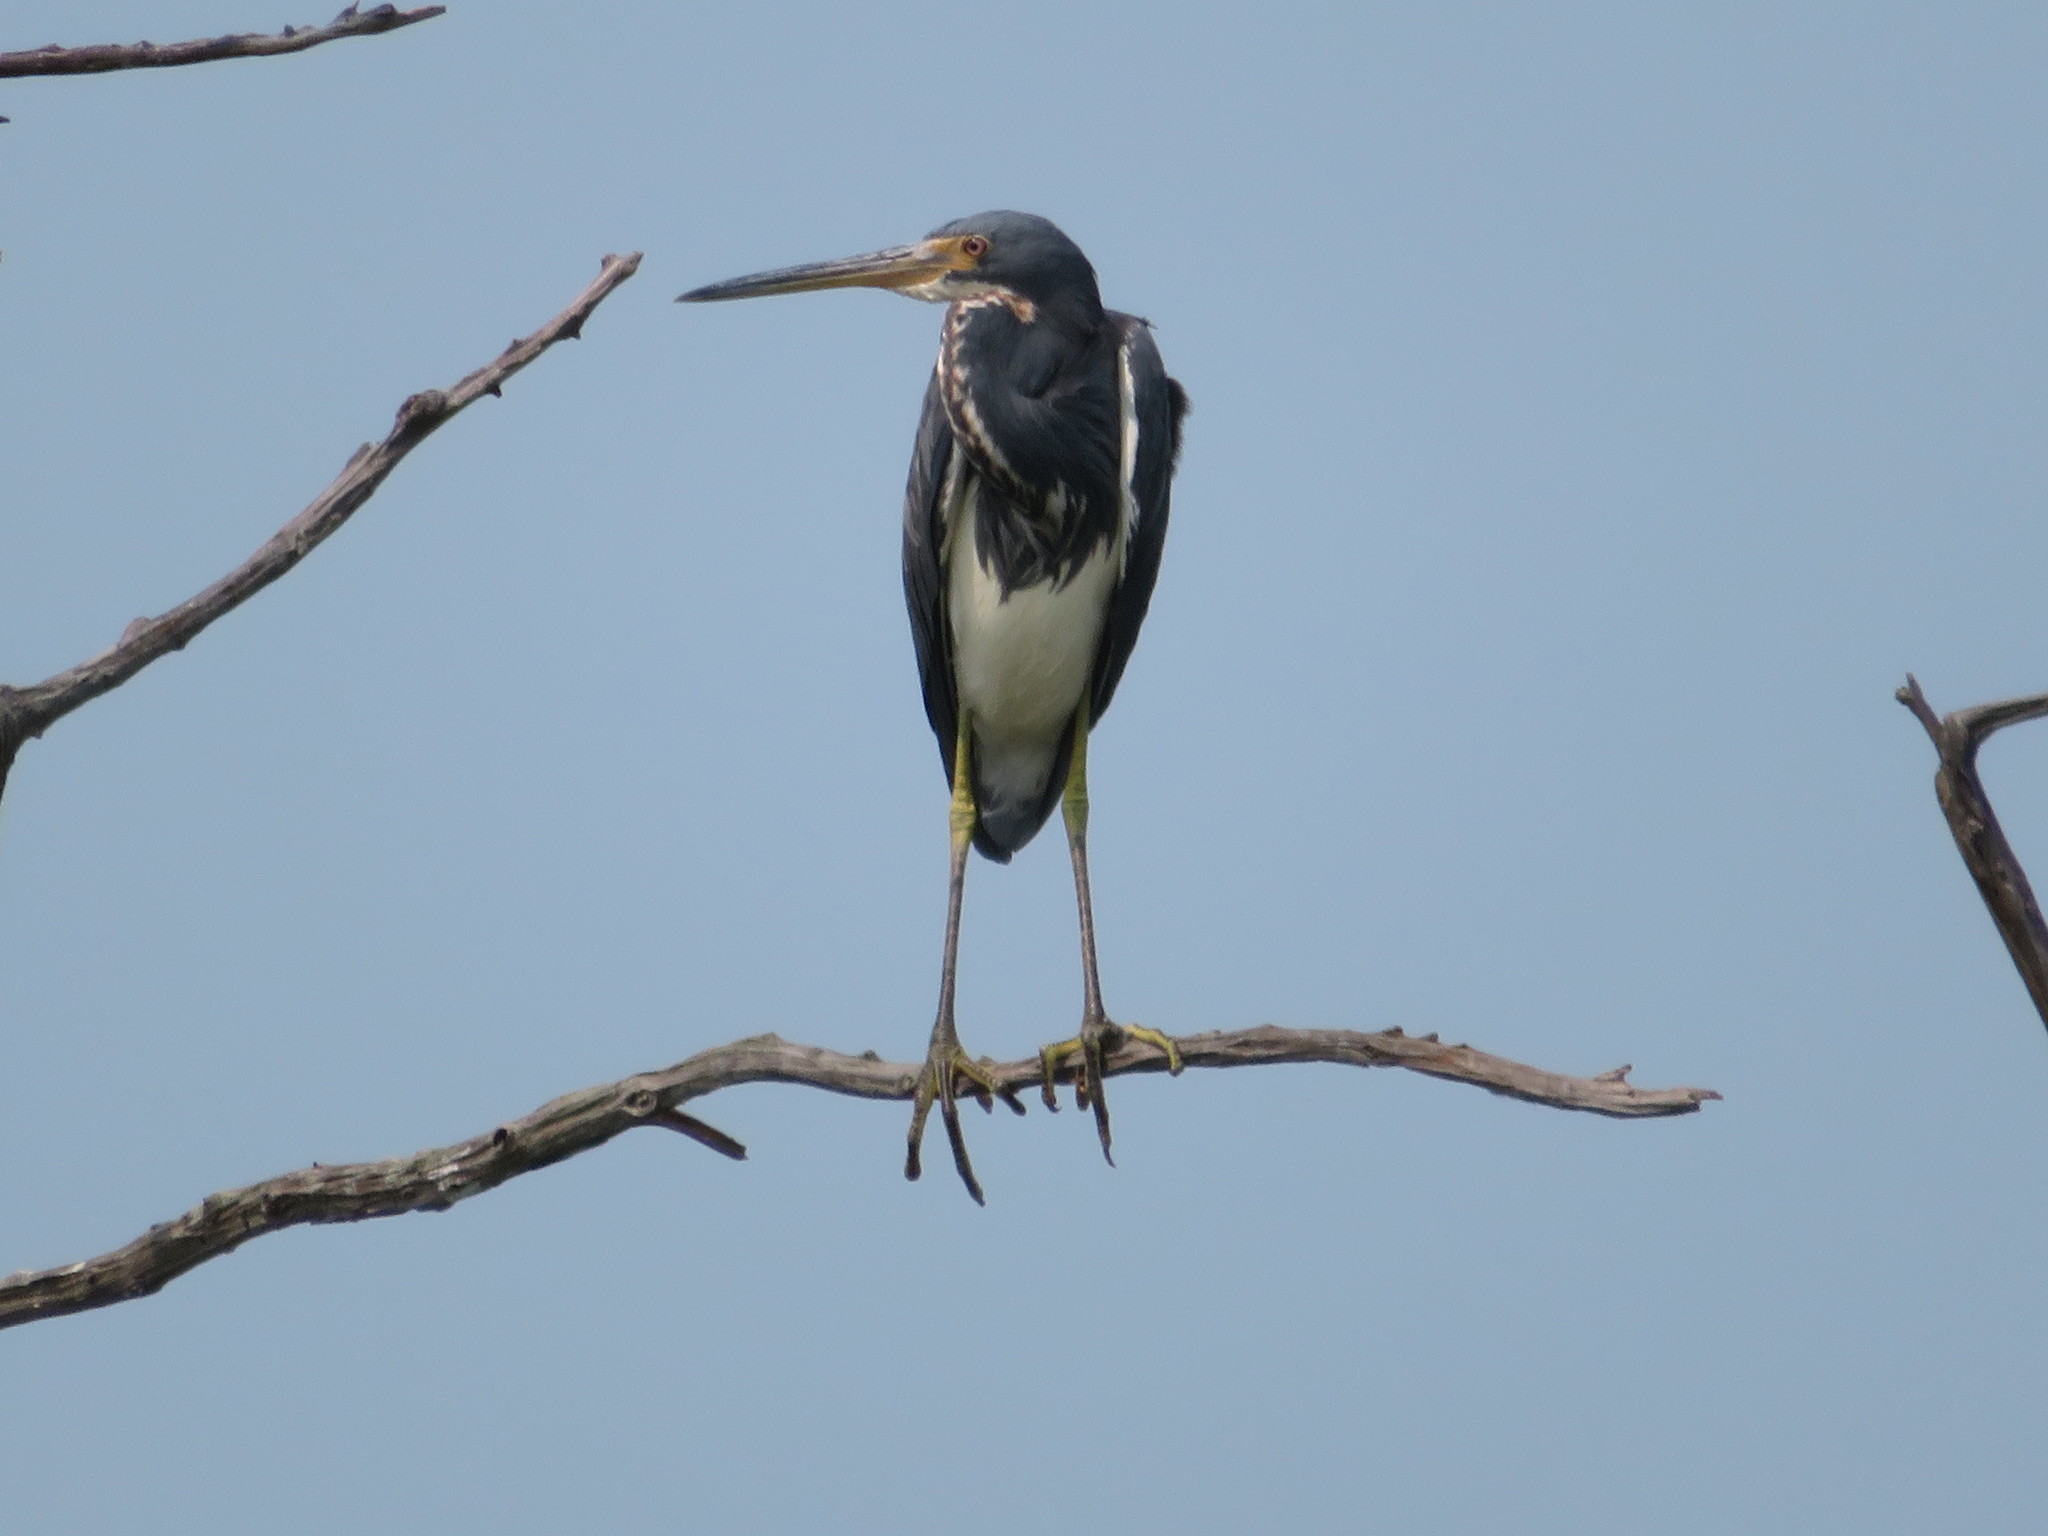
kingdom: Animalia
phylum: Chordata
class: Aves
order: Pelecaniformes
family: Ardeidae
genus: Egretta
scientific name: Egretta tricolor
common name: Tricolored heron
